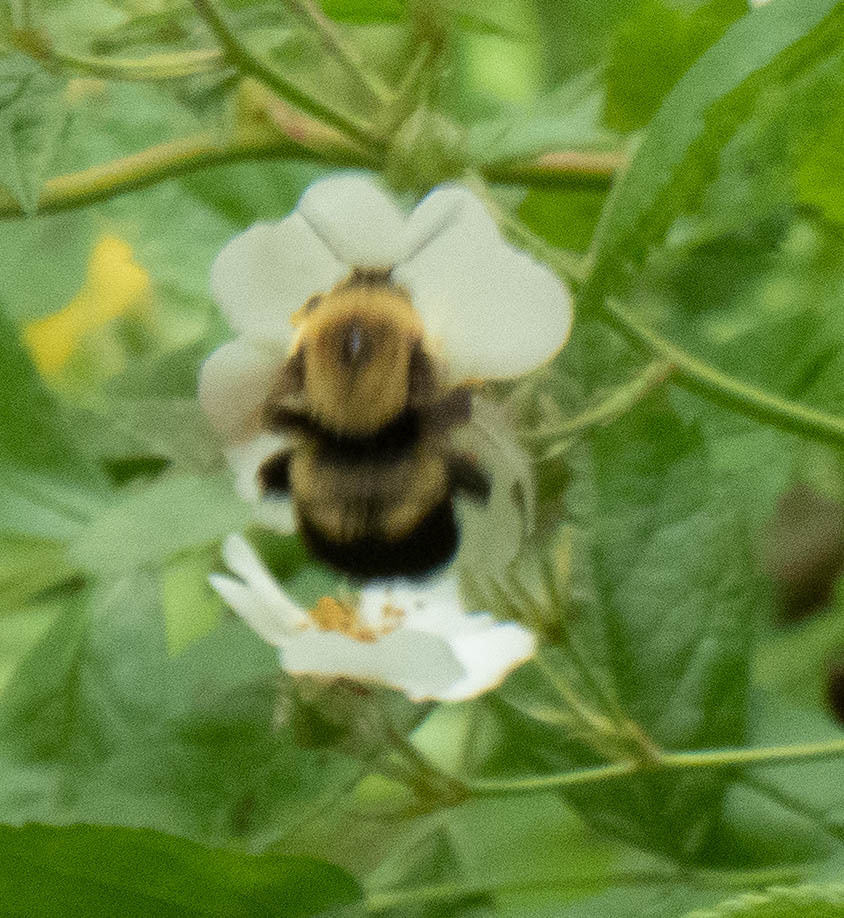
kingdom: Animalia
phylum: Arthropoda
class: Insecta
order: Hymenoptera
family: Apidae
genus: Bombus
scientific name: Bombus griseocollis
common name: Brown-belted bumble bee
